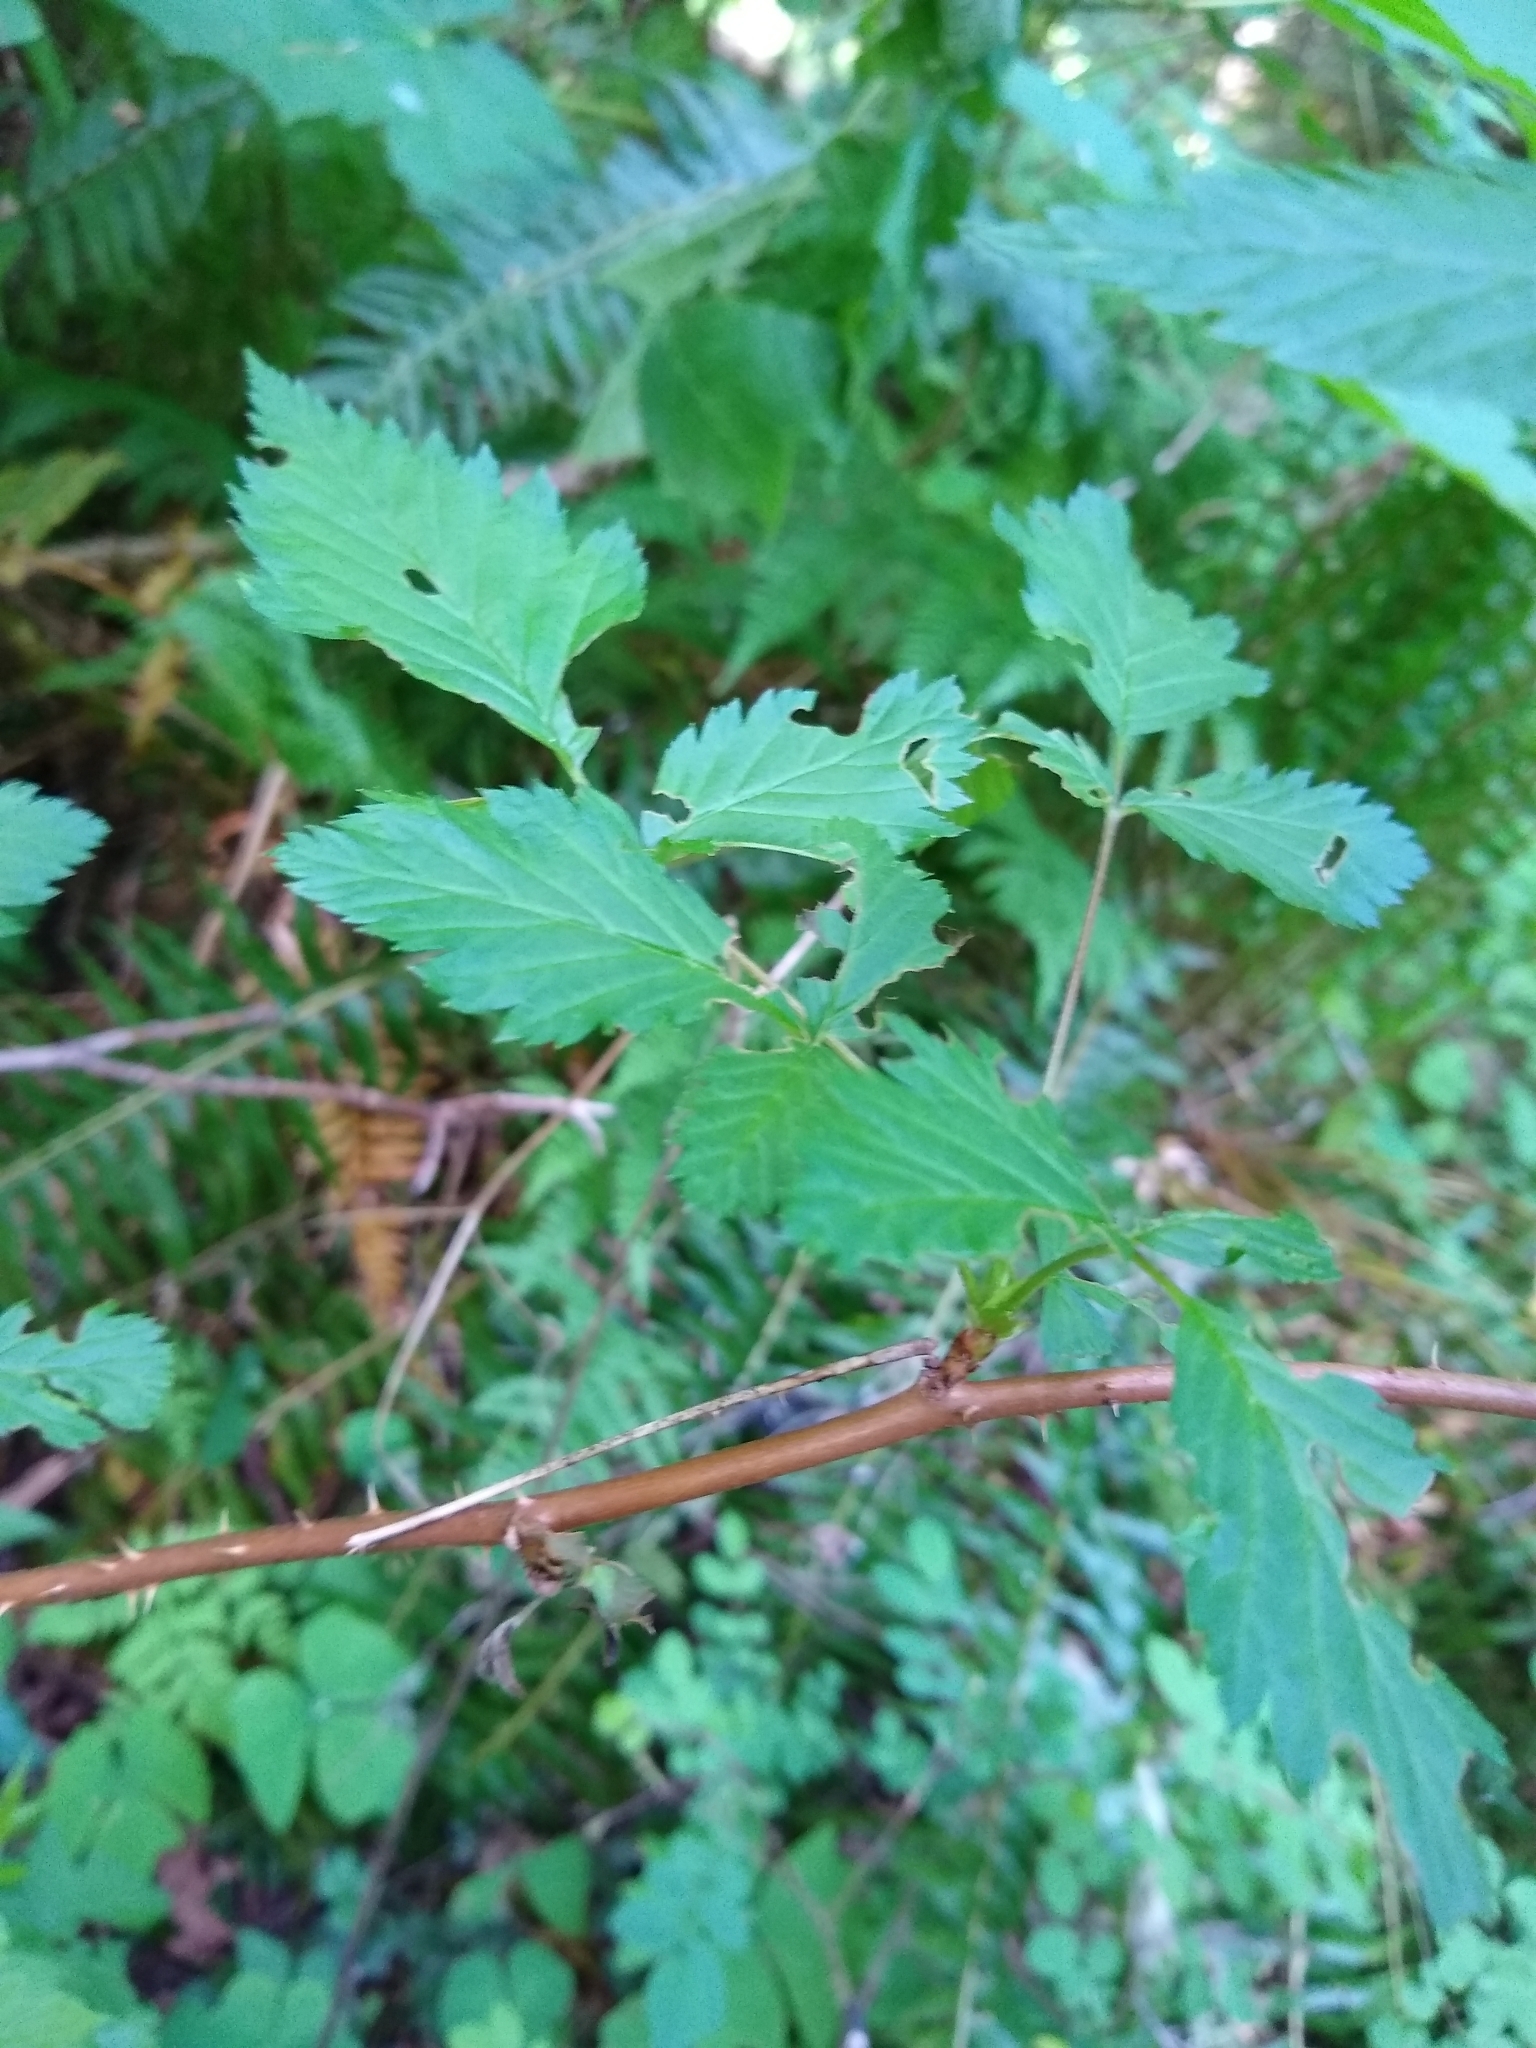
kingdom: Plantae
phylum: Tracheophyta
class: Magnoliopsida
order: Rosales
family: Rosaceae
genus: Rubus
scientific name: Rubus spectabilis
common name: Salmonberry
